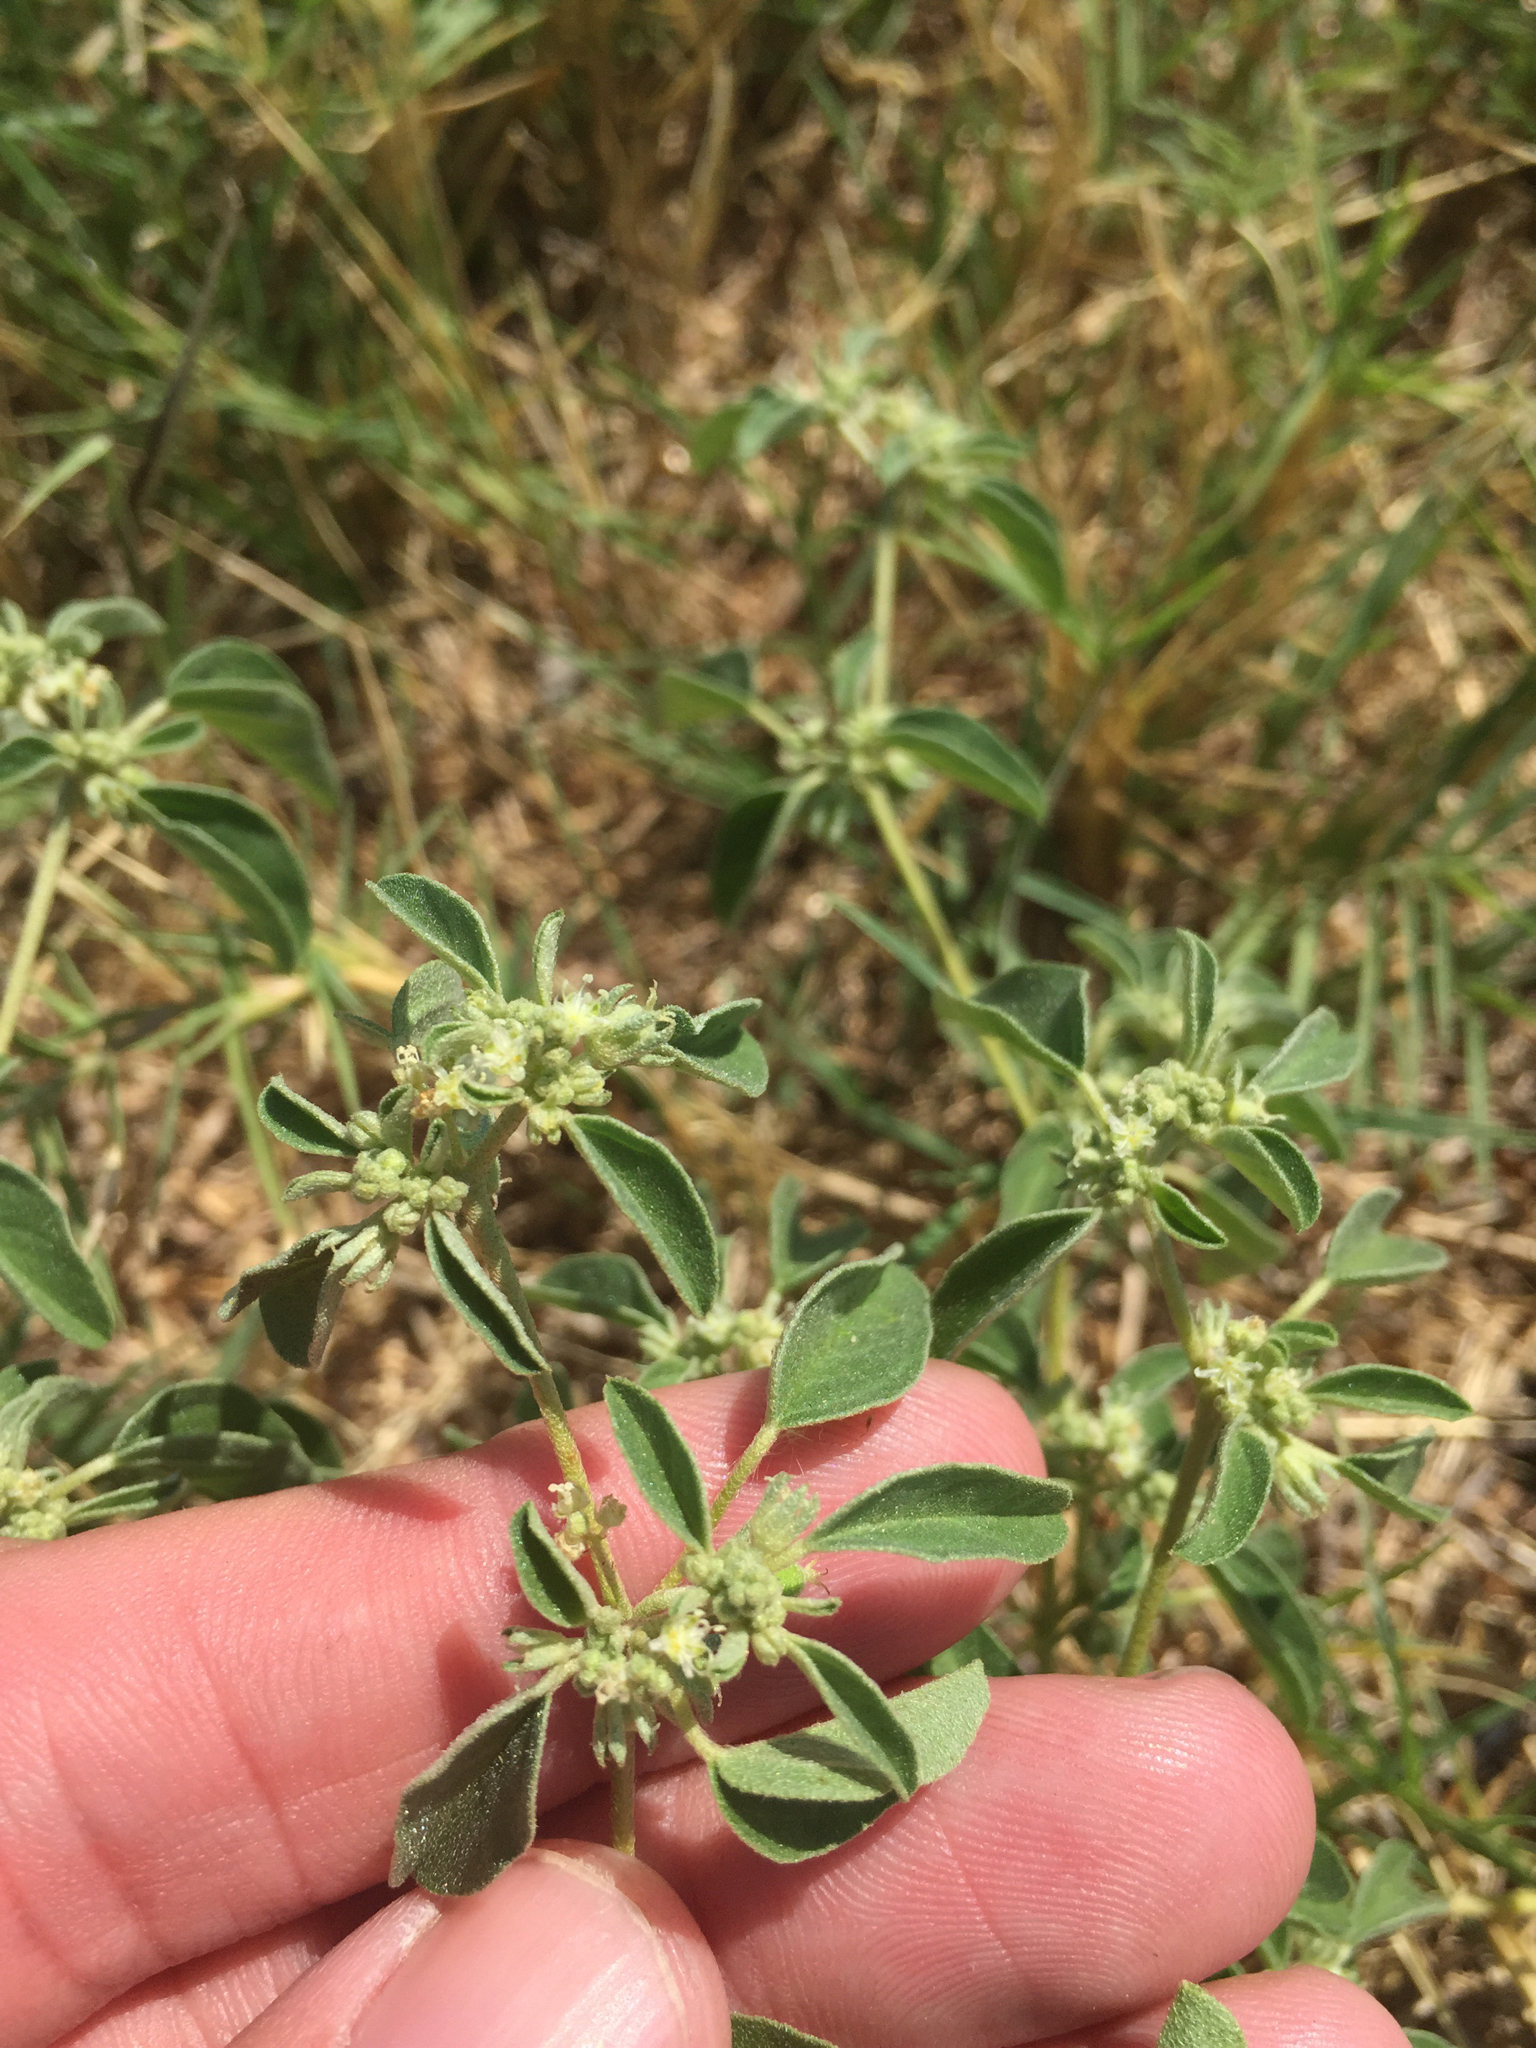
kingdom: Plantae
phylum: Tracheophyta
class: Magnoliopsida
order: Malpighiales
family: Euphorbiaceae
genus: Croton
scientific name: Croton monanthogynus
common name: One-seed croton
